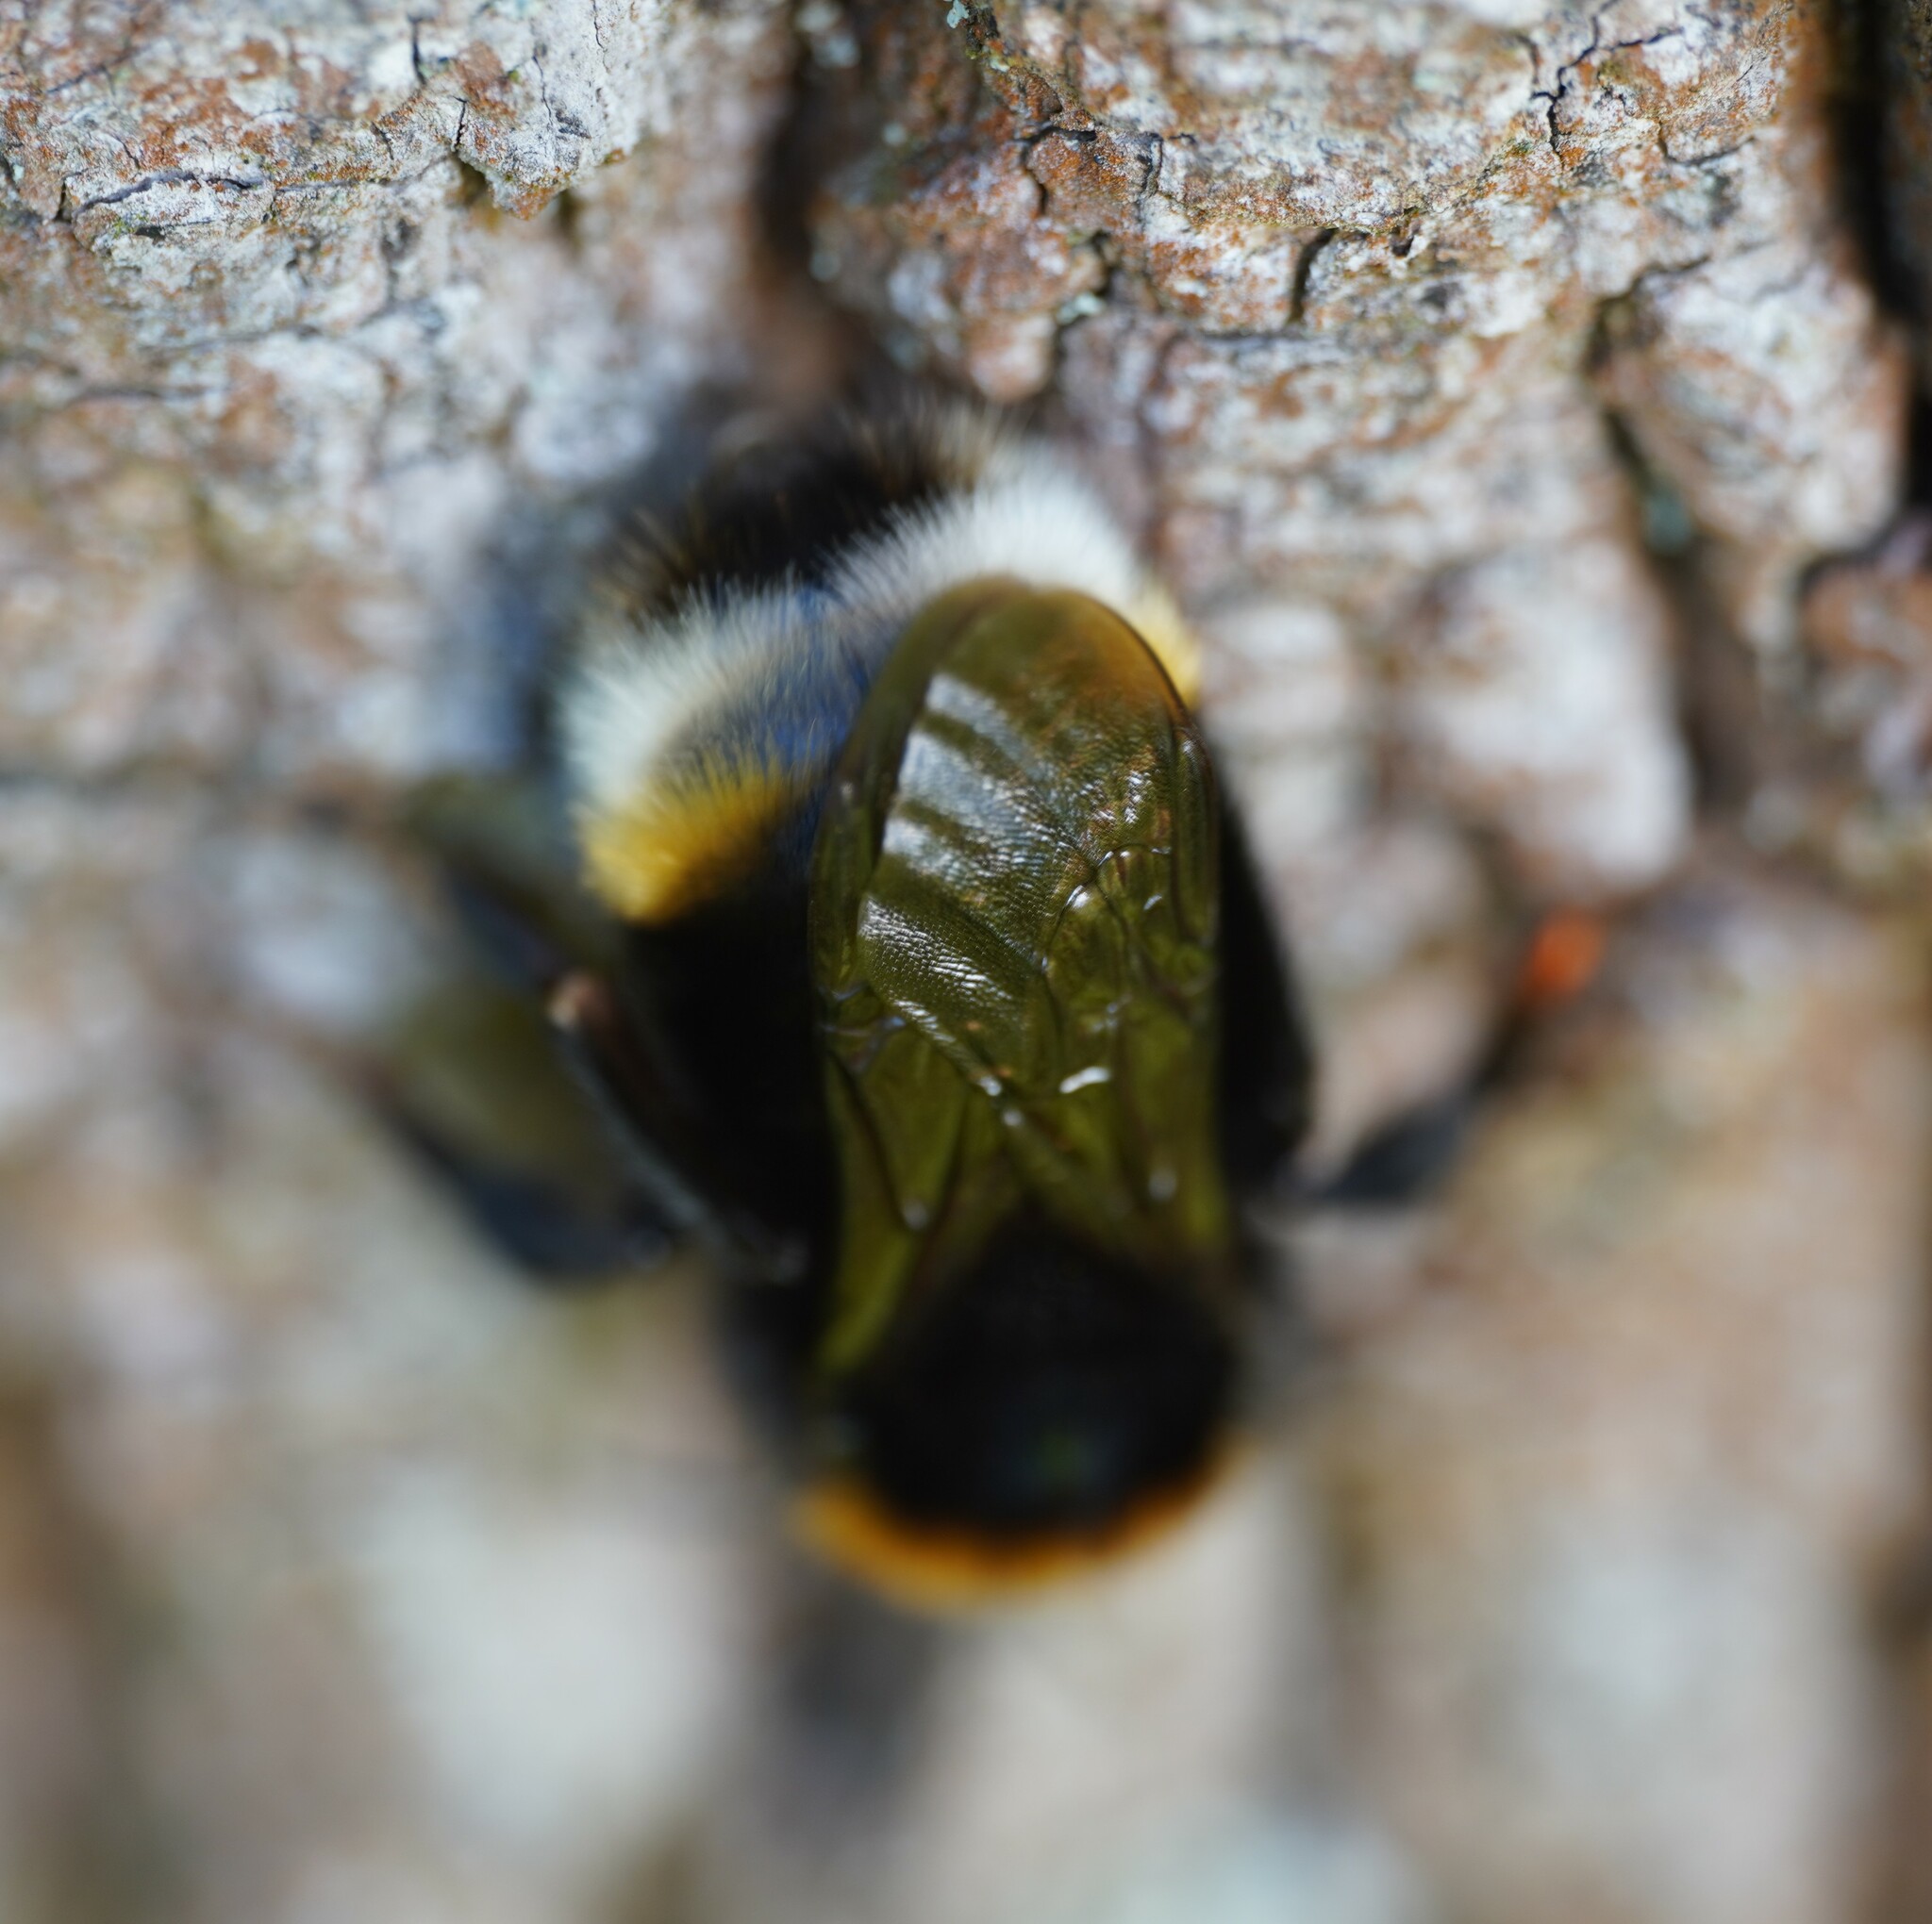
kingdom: Animalia
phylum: Arthropoda
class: Insecta
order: Hymenoptera
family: Apidae
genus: Bombus
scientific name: Bombus vestalis
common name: Vestal cuckoo bee
